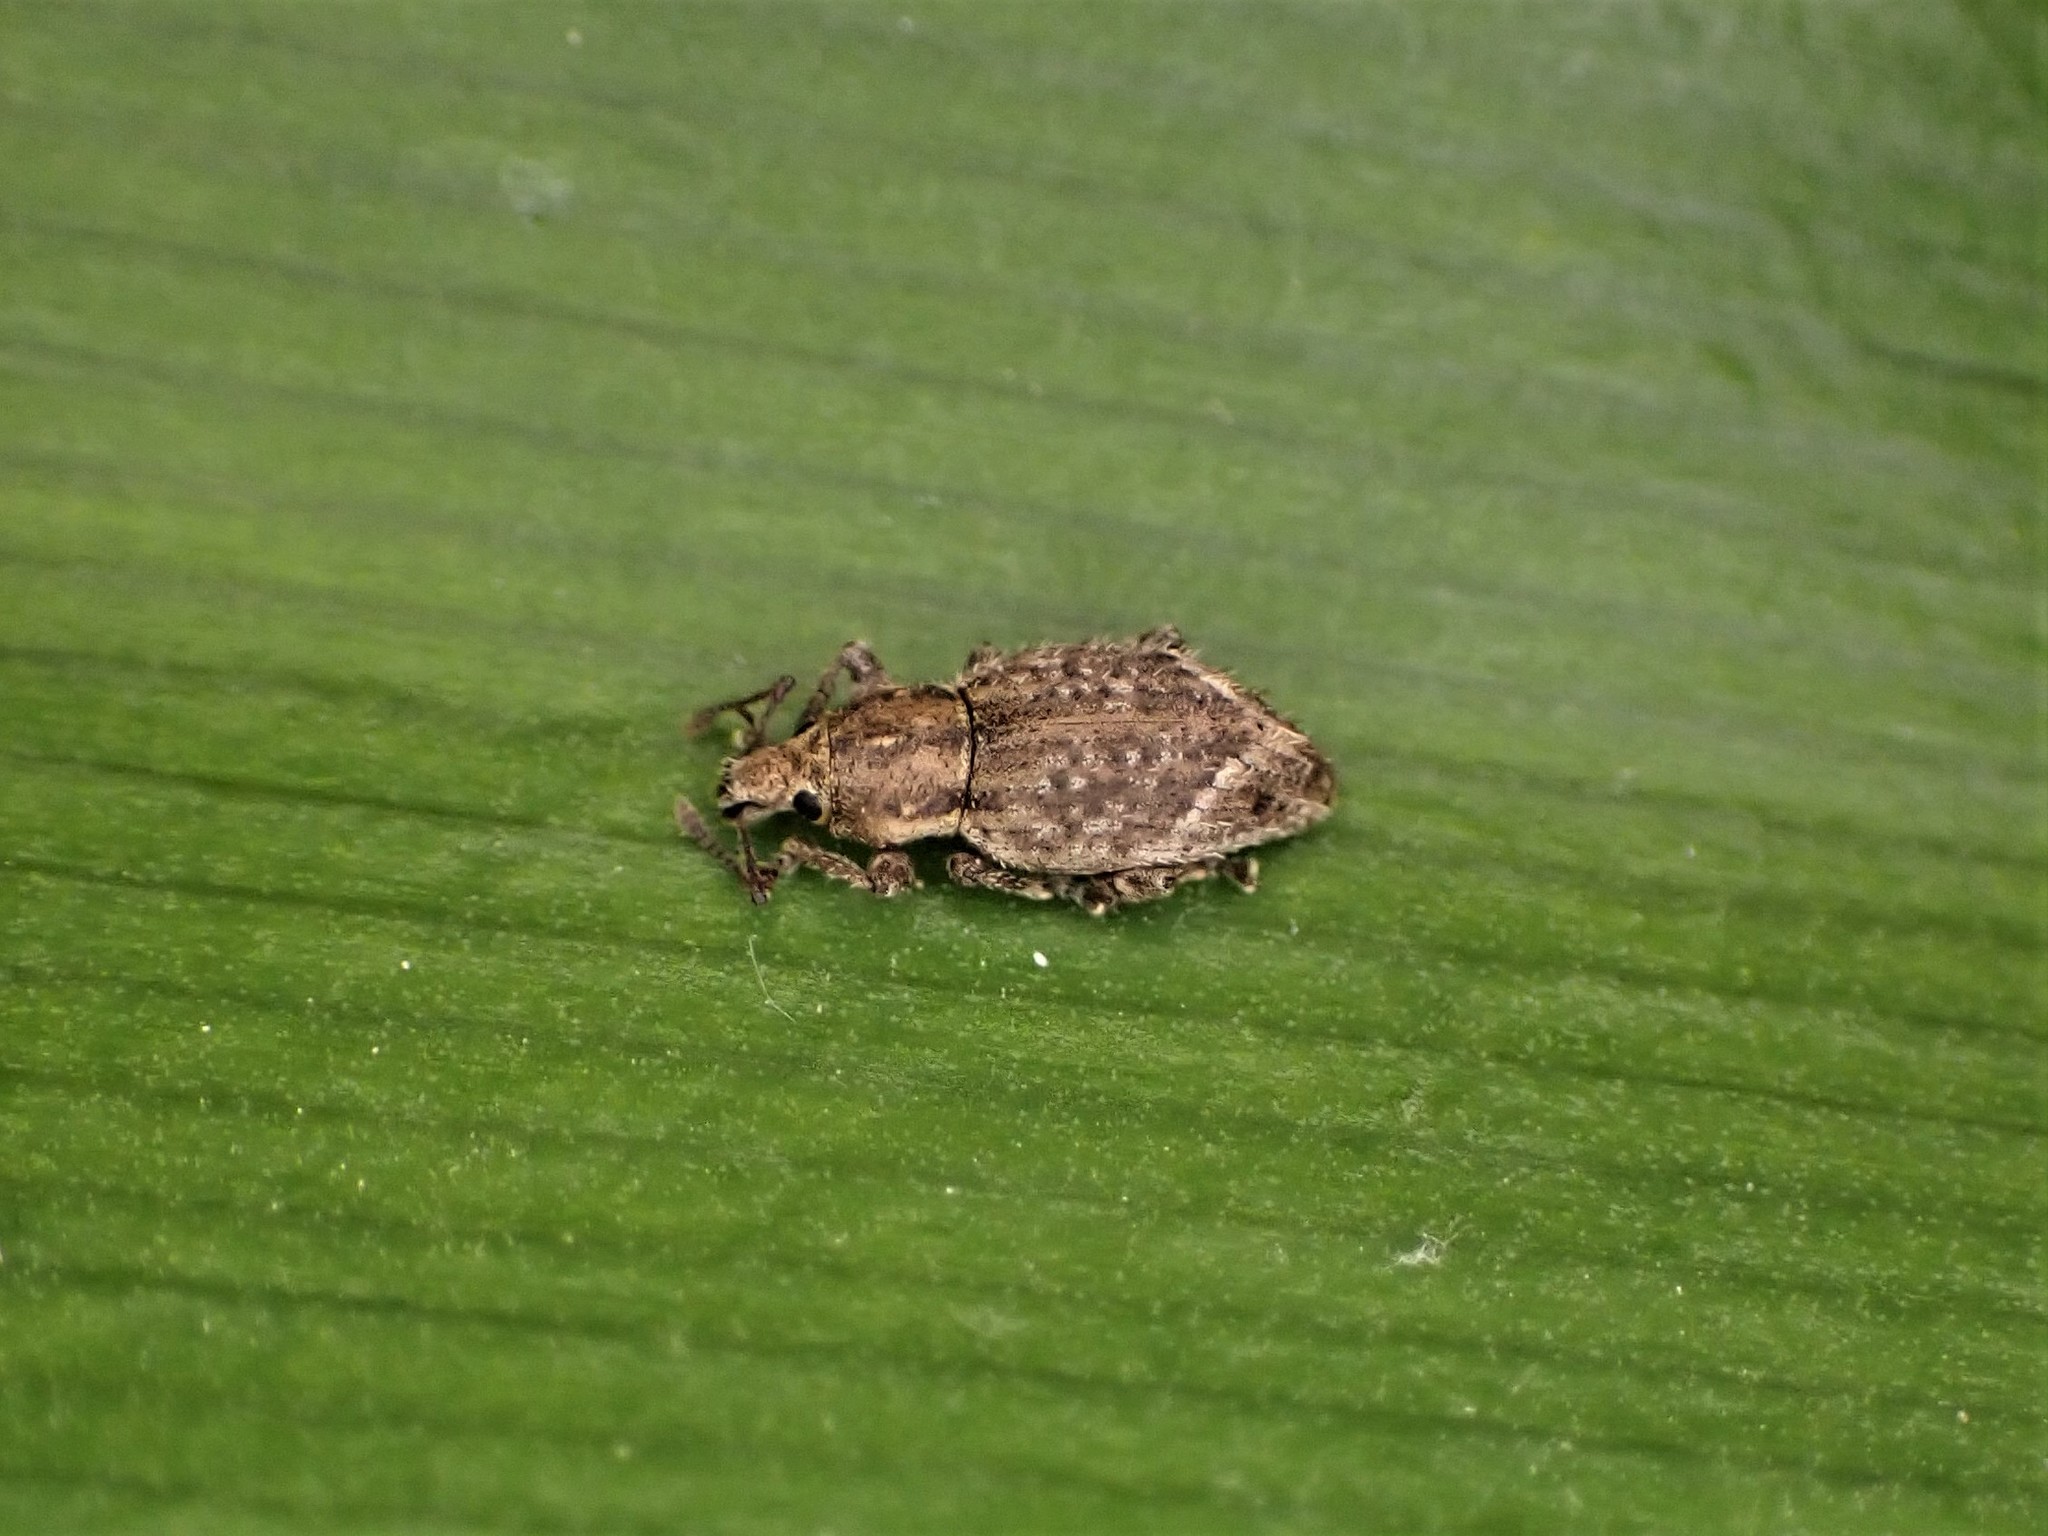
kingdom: Animalia
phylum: Arthropoda
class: Insecta
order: Coleoptera
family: Curculionidae
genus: Chalepistes
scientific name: Chalepistes compressus
